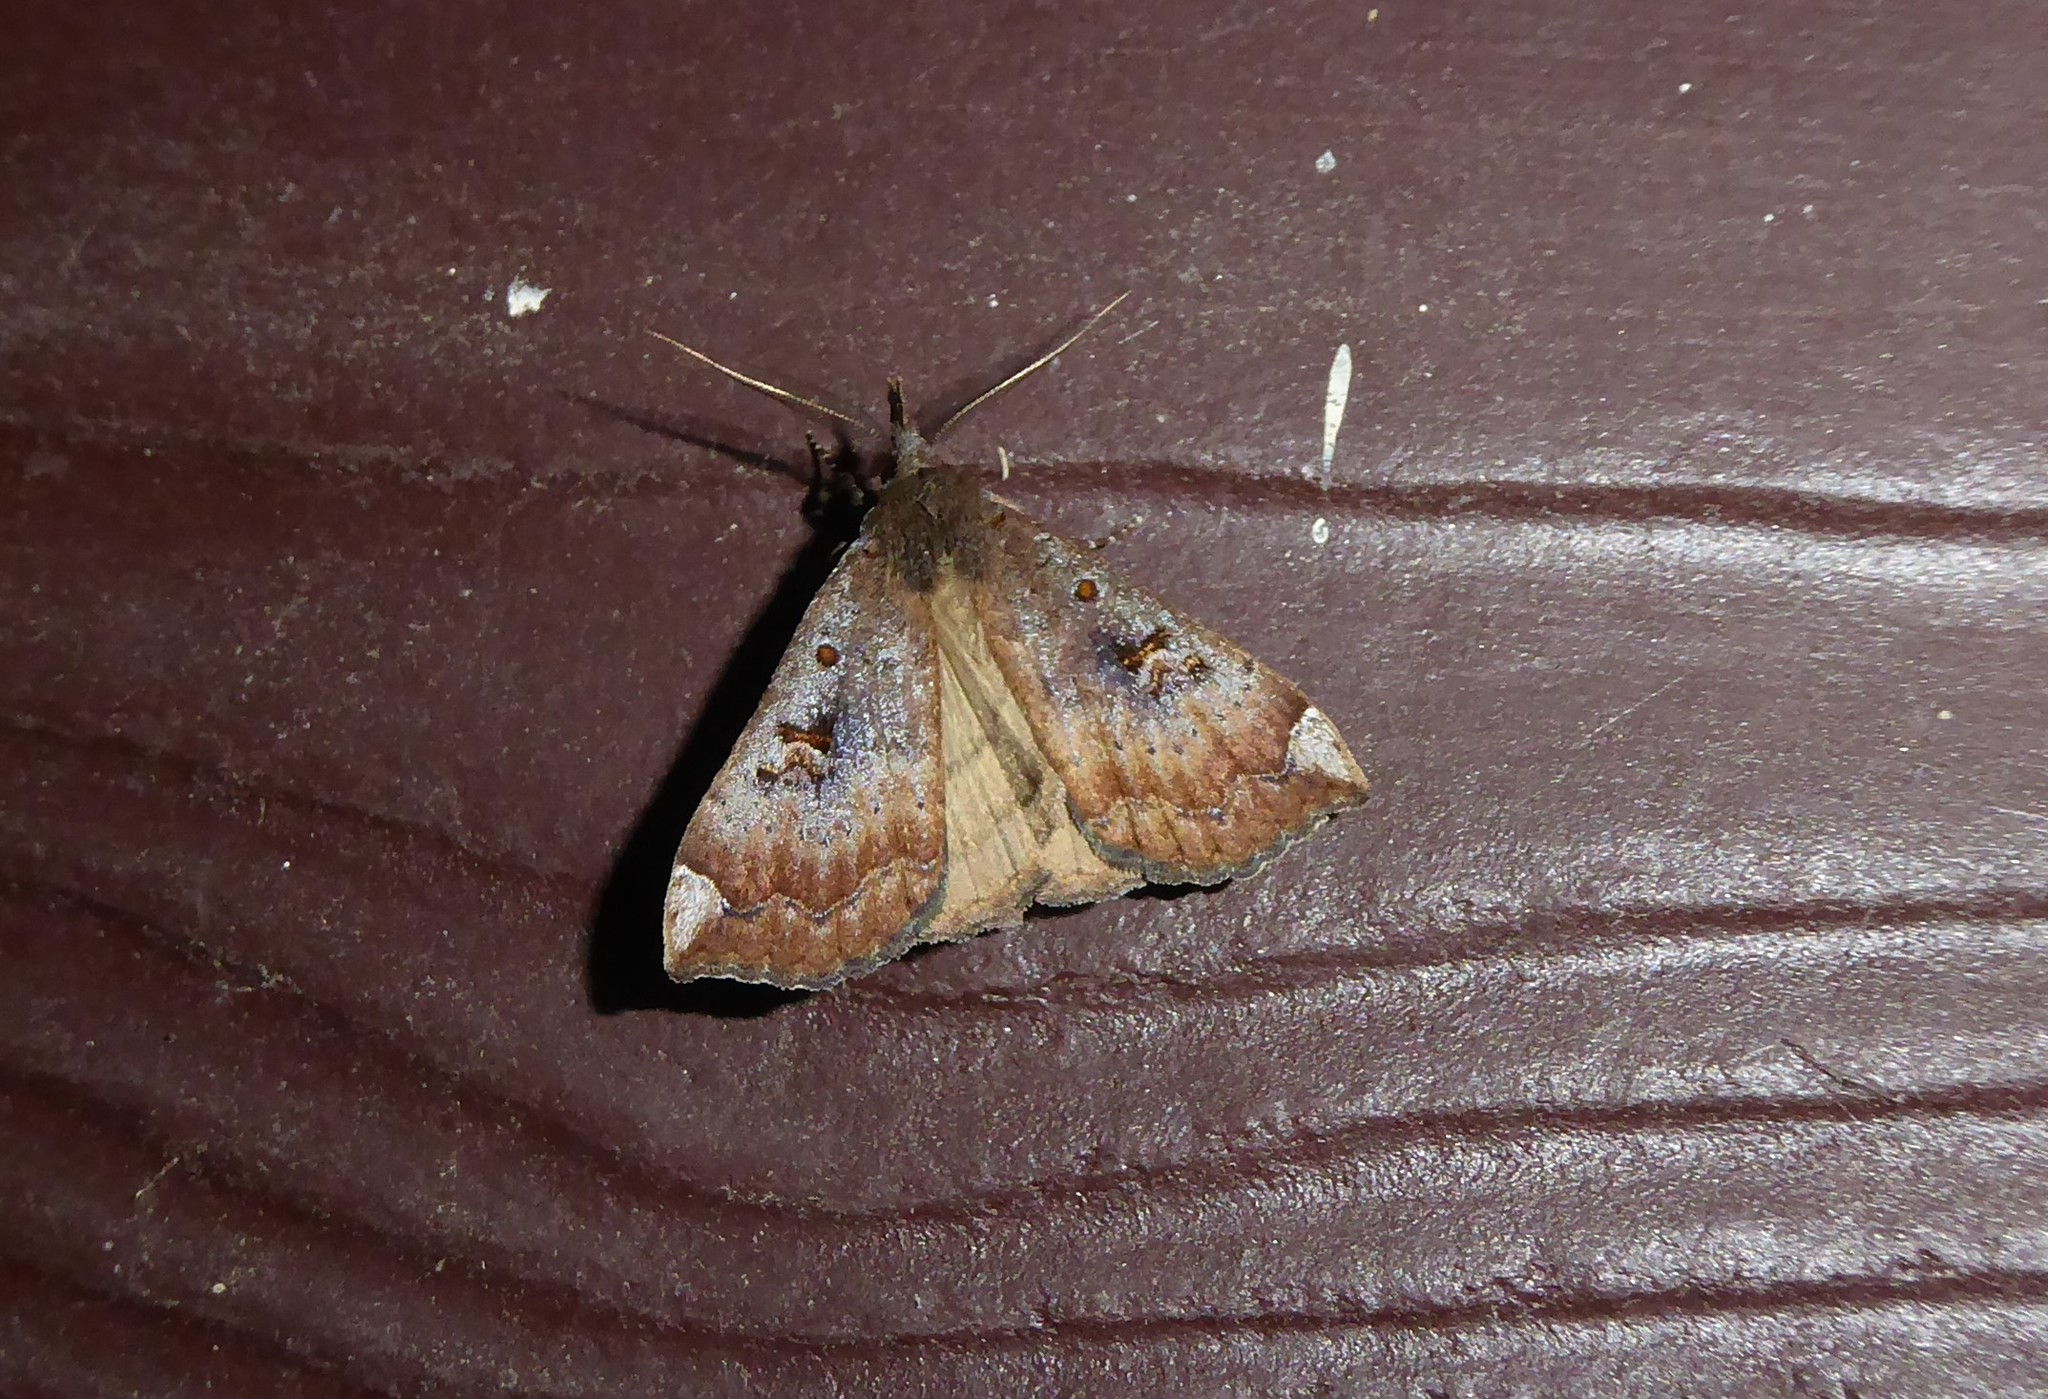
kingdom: Animalia
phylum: Arthropoda
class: Insecta
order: Lepidoptera
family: Erebidae
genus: Rhapsa
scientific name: Rhapsa scotosialis
